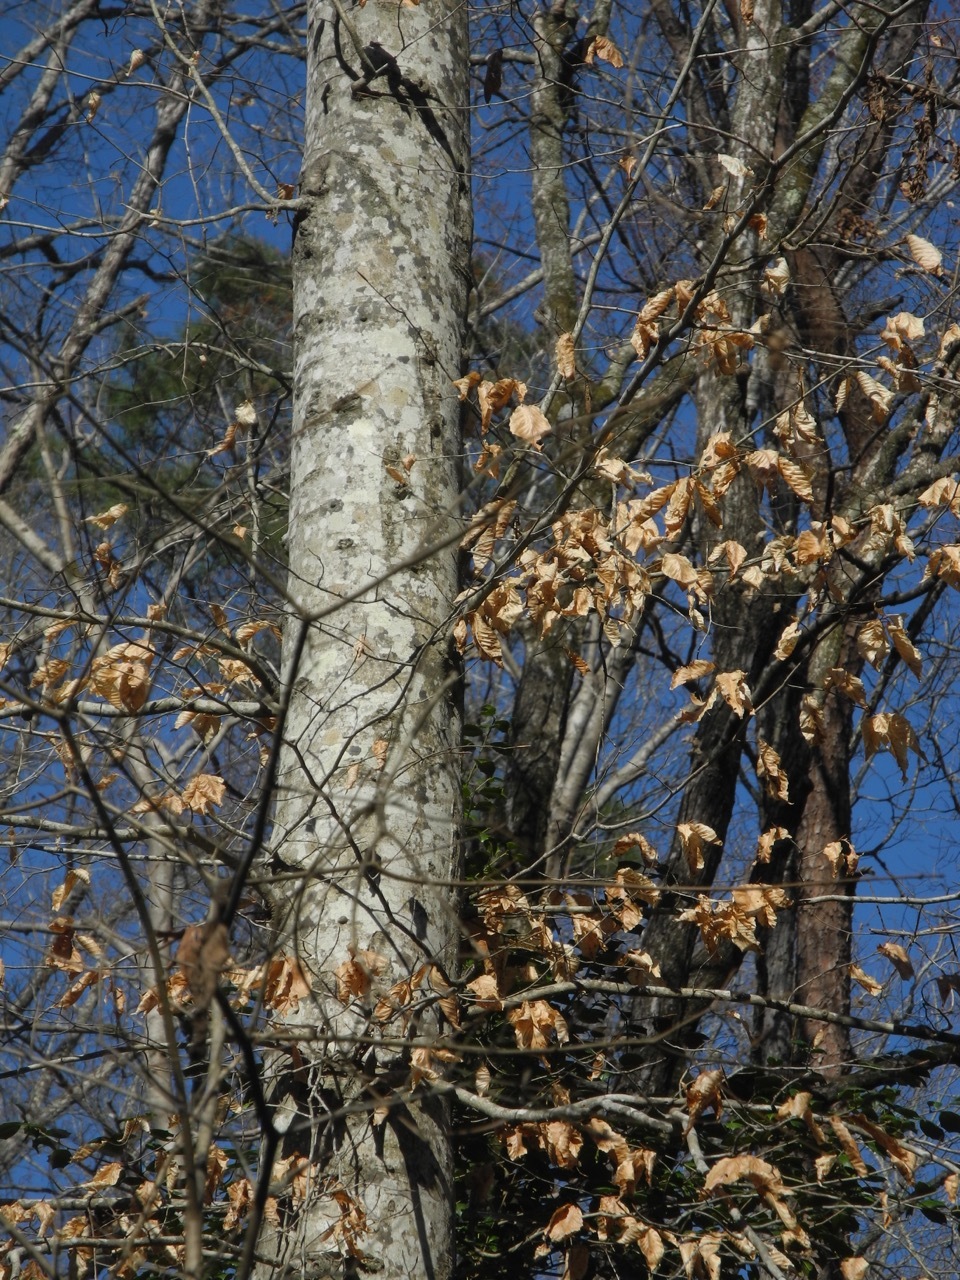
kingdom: Plantae
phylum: Tracheophyta
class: Magnoliopsida
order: Fagales
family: Fagaceae
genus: Fagus
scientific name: Fagus grandifolia
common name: American beech
